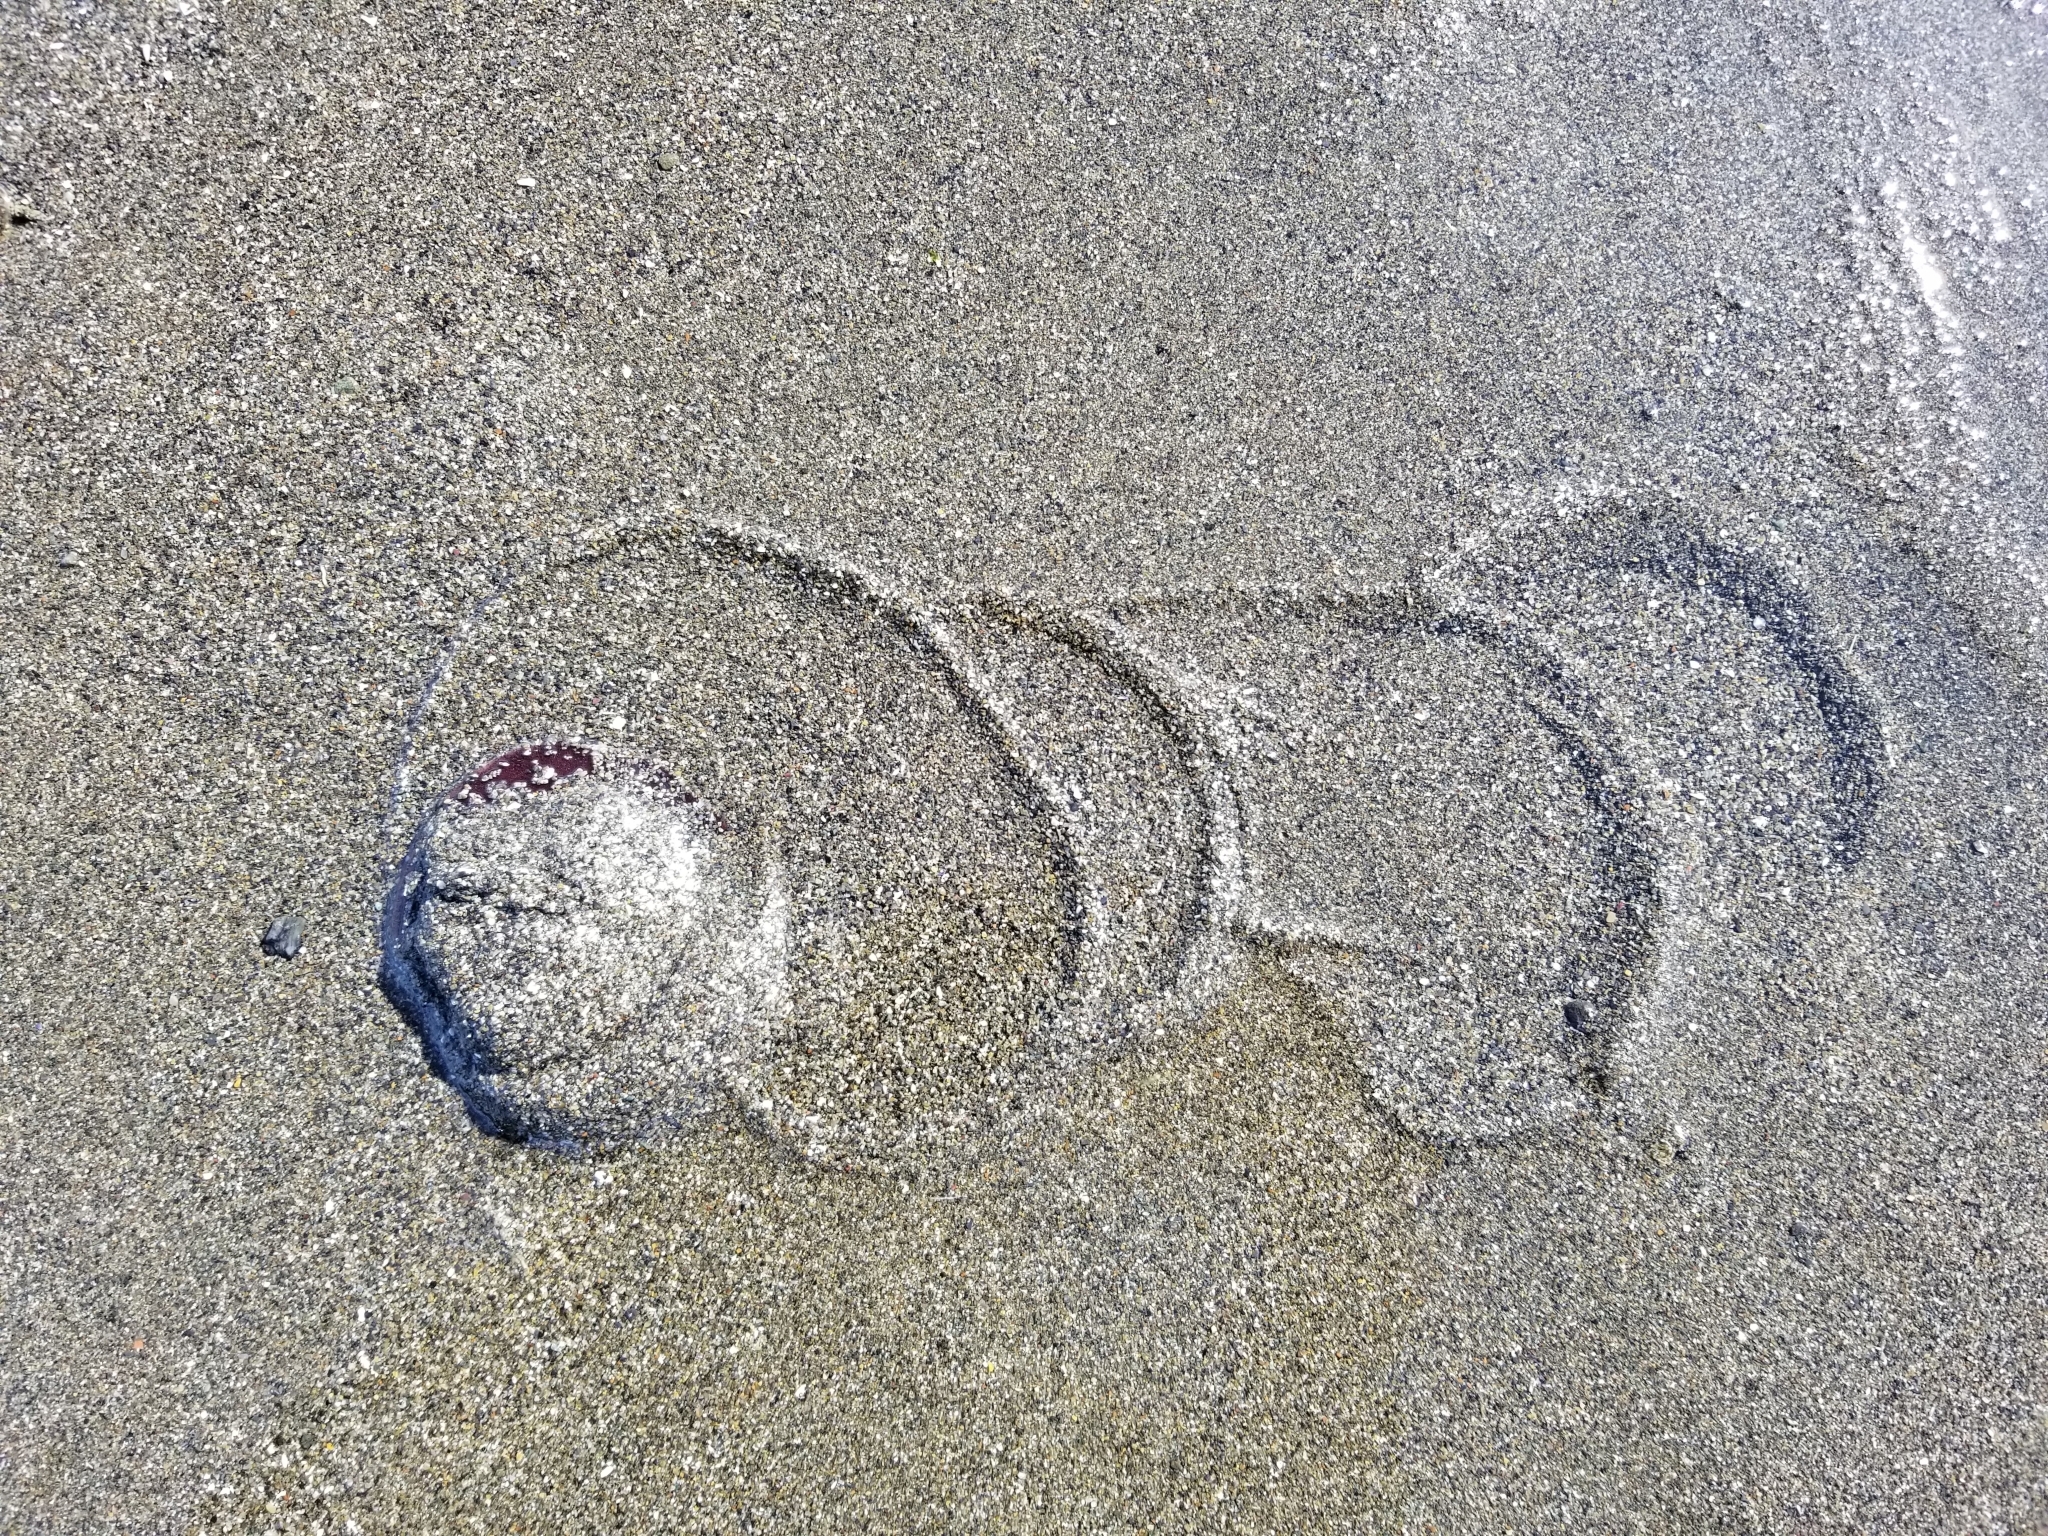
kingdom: Animalia
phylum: Echinodermata
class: Echinoidea
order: Echinolampadacea
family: Echinarachniidae
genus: Echinarachnius
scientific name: Echinarachnius parma
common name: Common sand dollar
